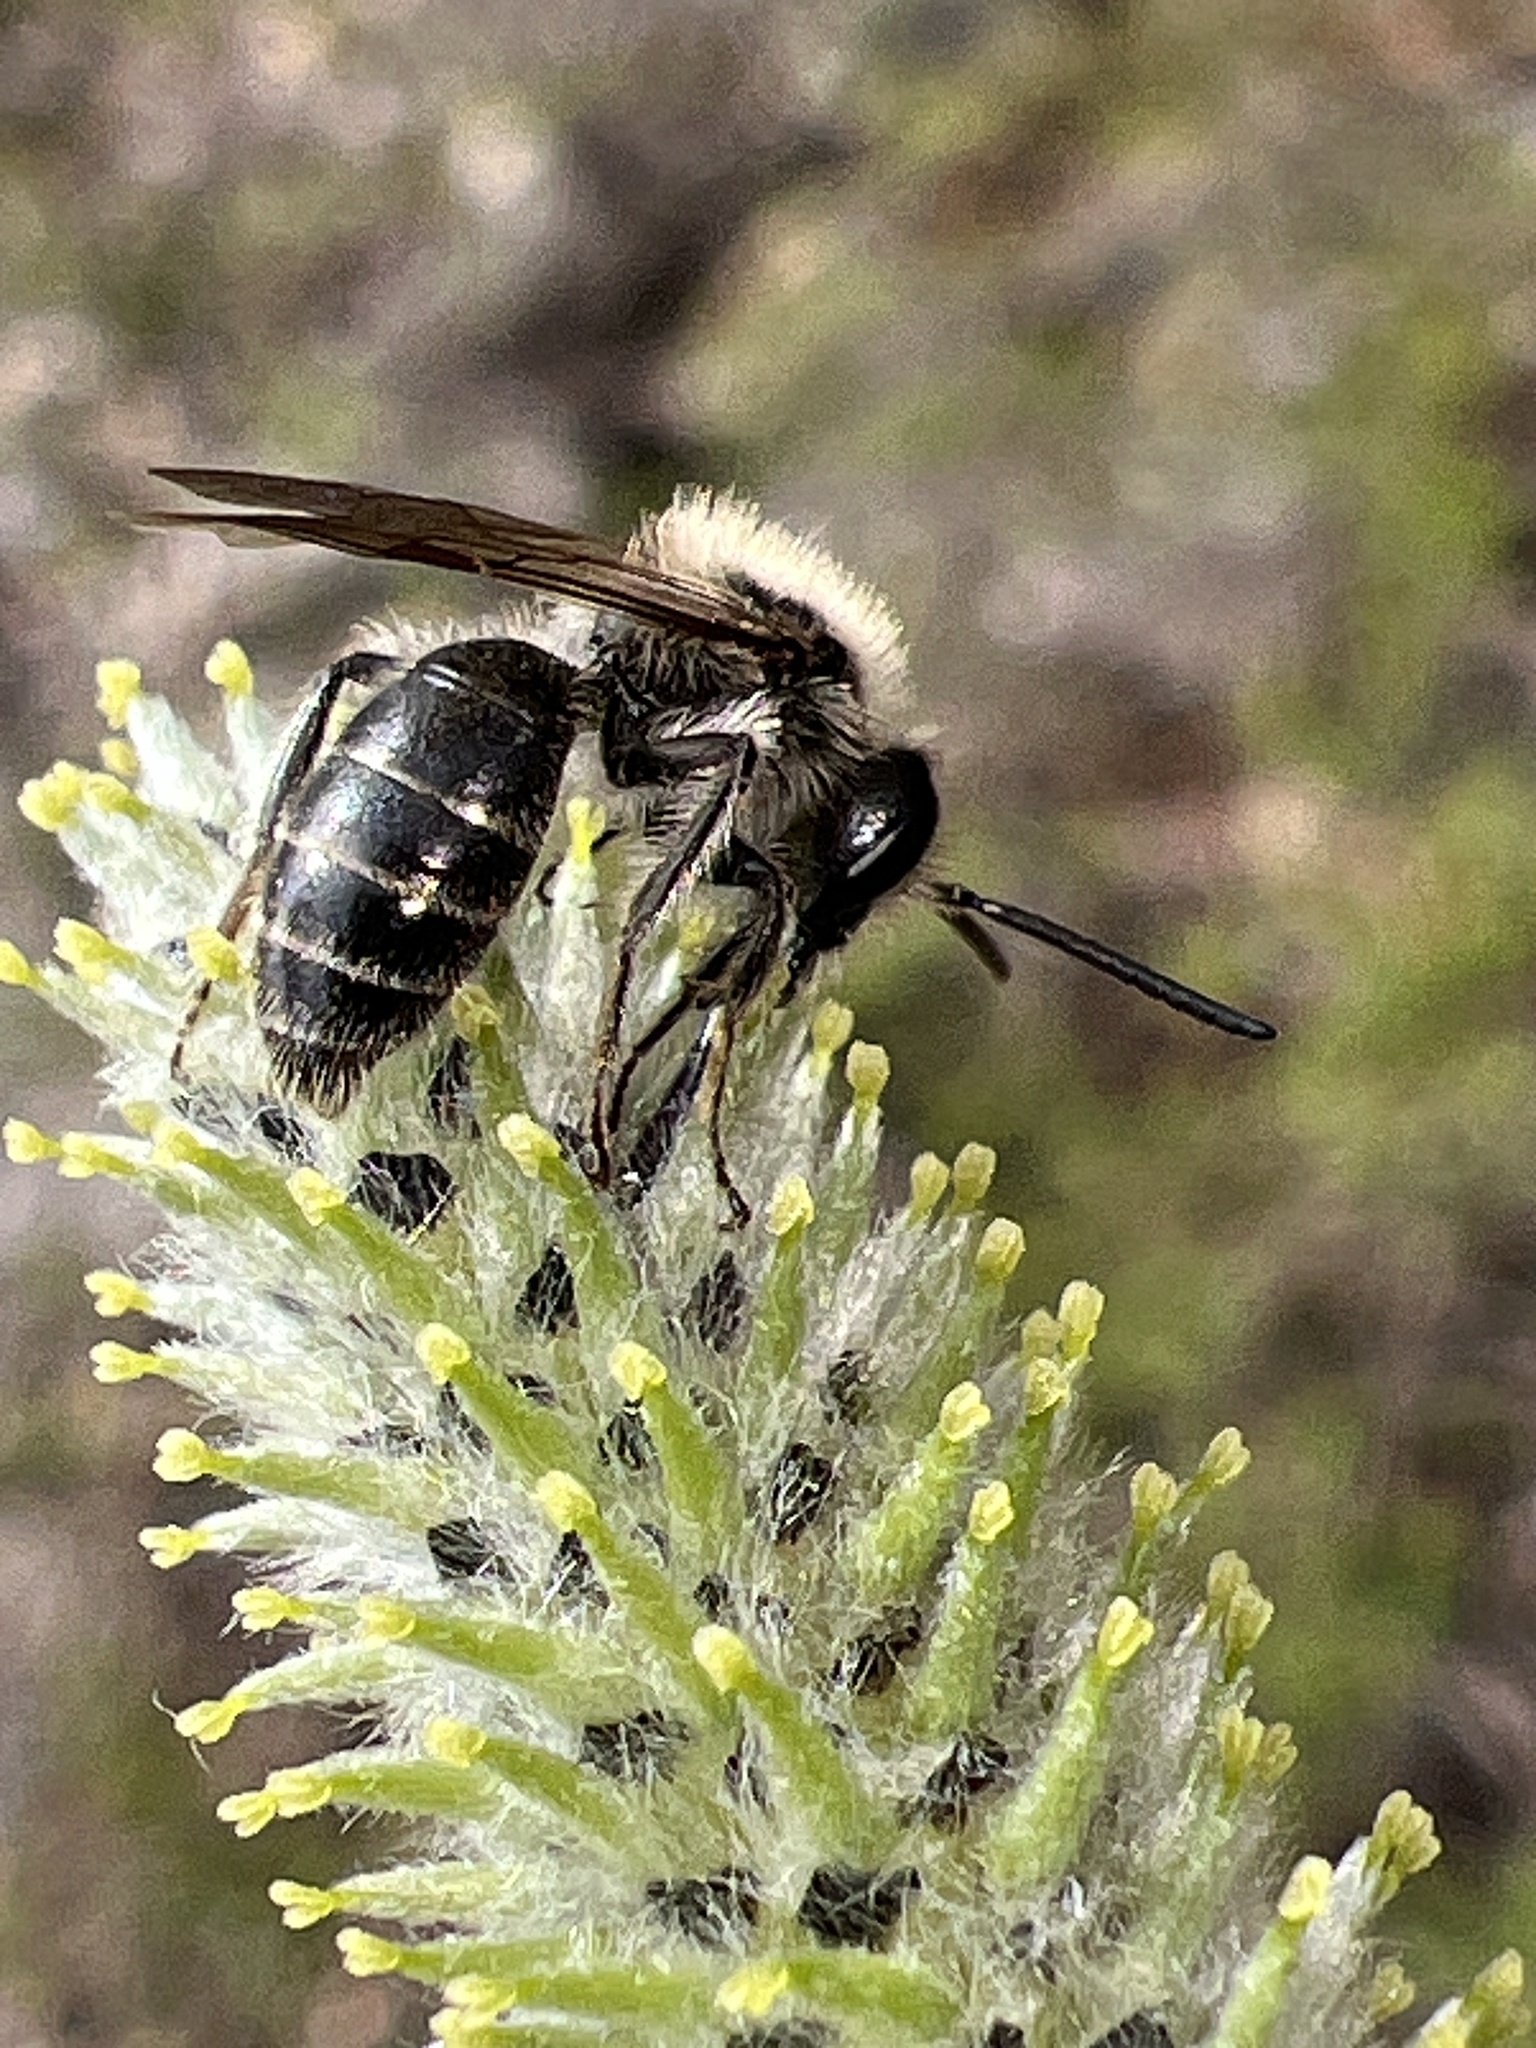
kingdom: Animalia
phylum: Arthropoda
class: Insecta
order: Hymenoptera
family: Colletidae
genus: Colletes
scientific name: Colletes inaequalis
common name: Unequal cellophane bee
